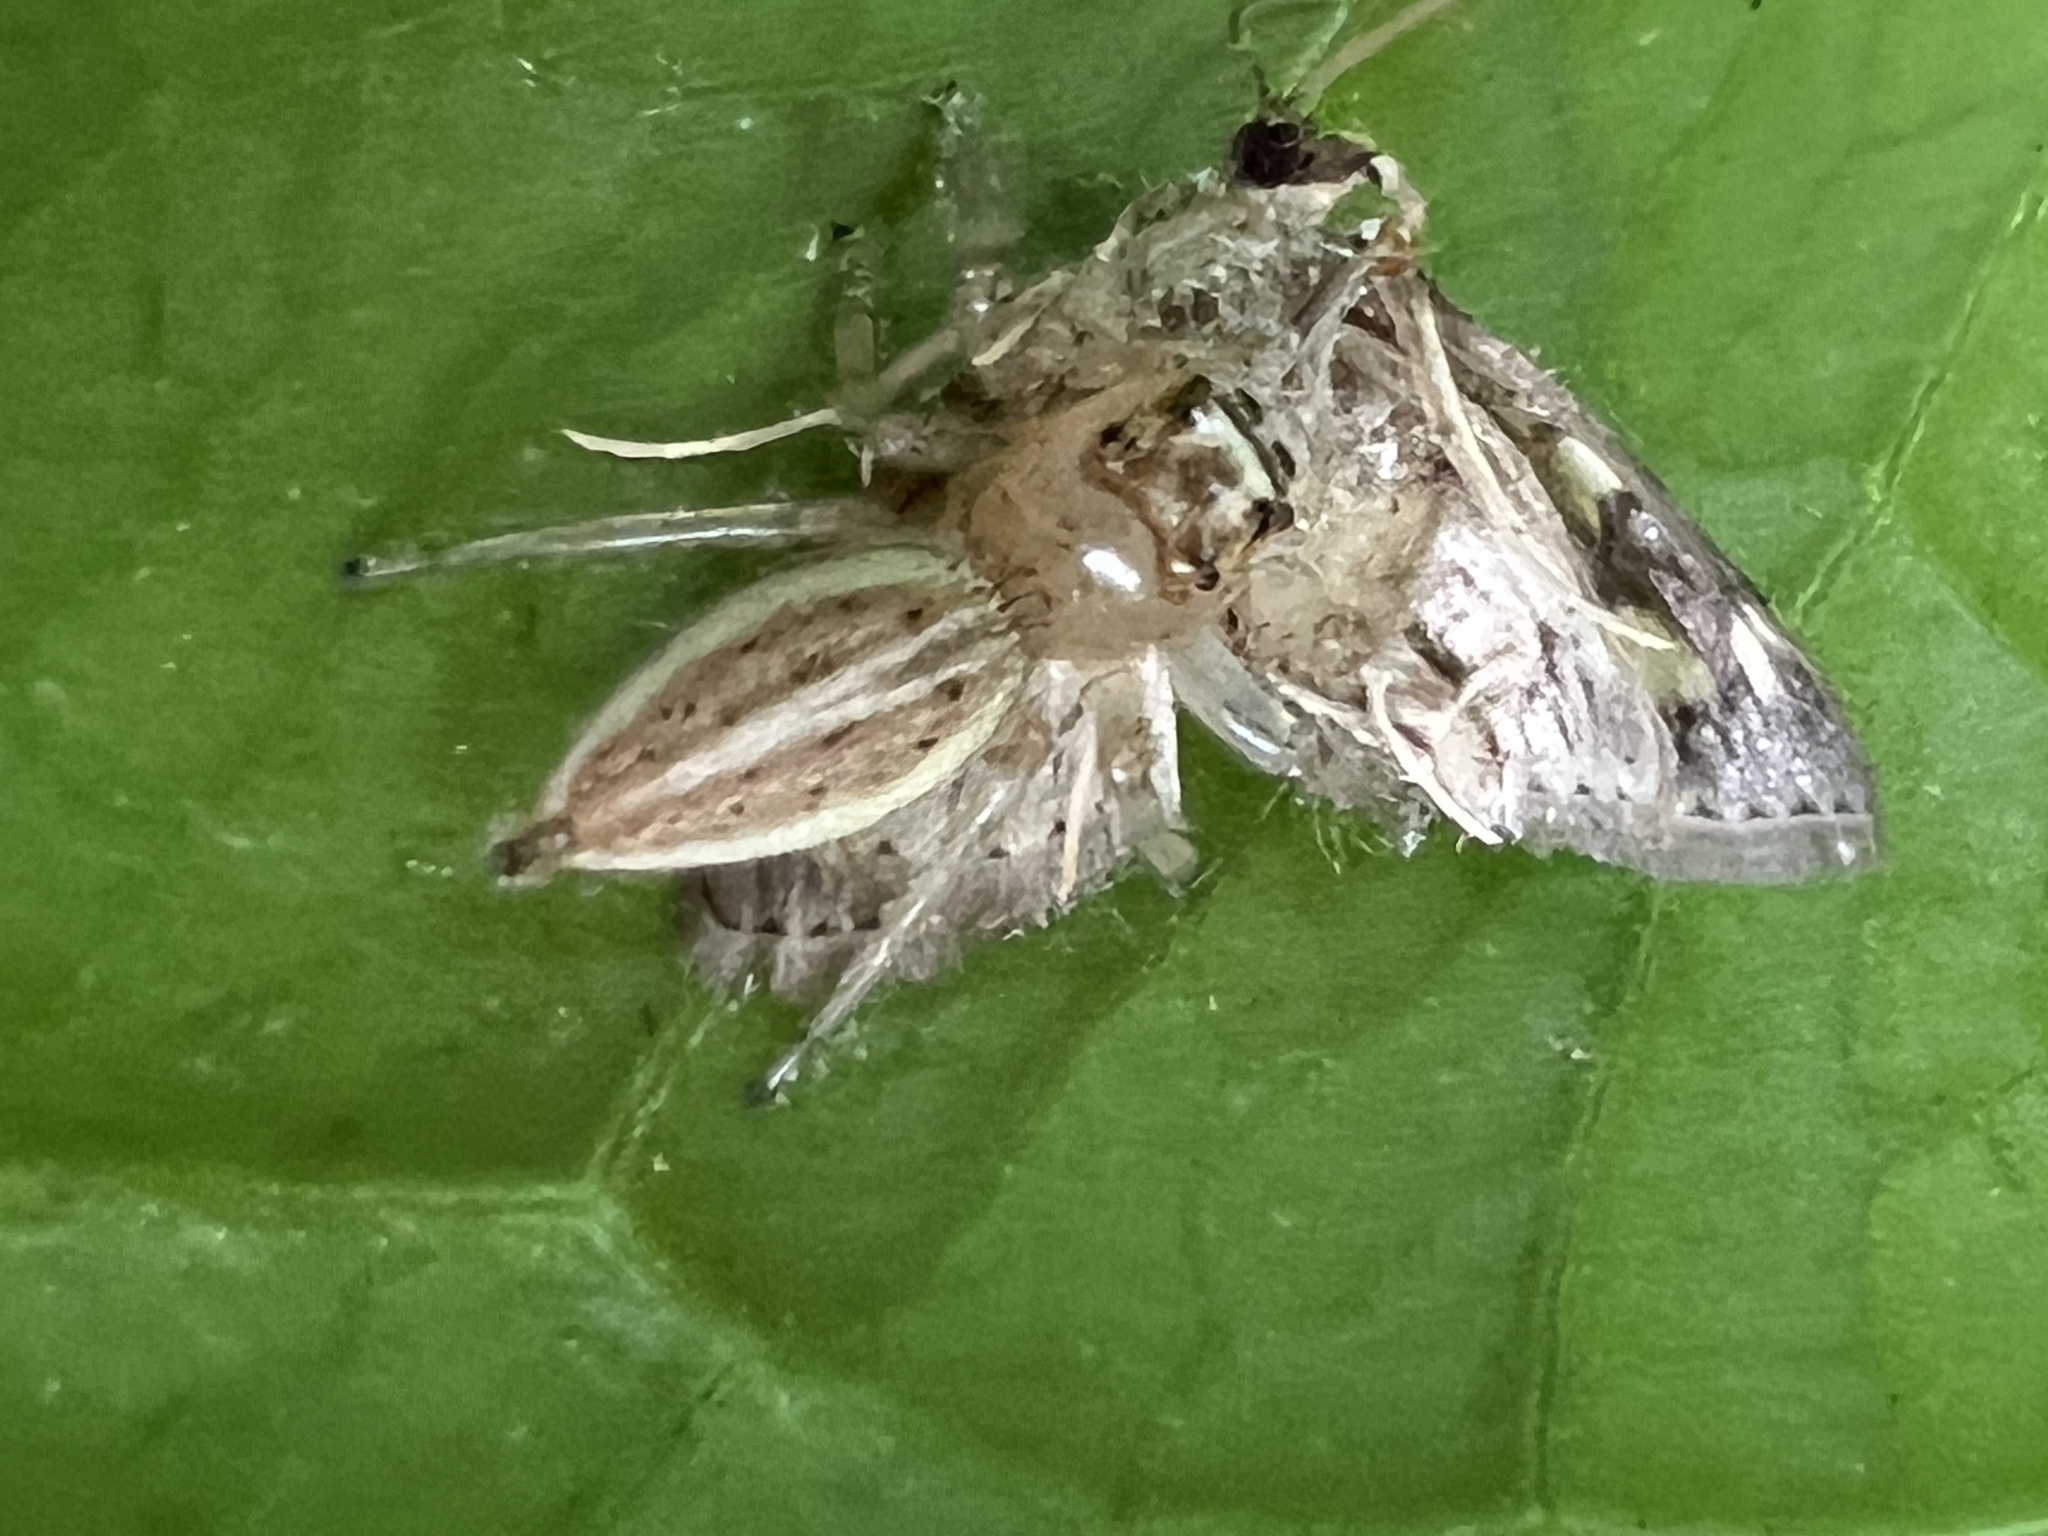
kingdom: Animalia
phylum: Arthropoda
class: Arachnida
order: Araneae
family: Salticidae
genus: Colonus
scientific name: Colonus sylvanus
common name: Jumping spiders
